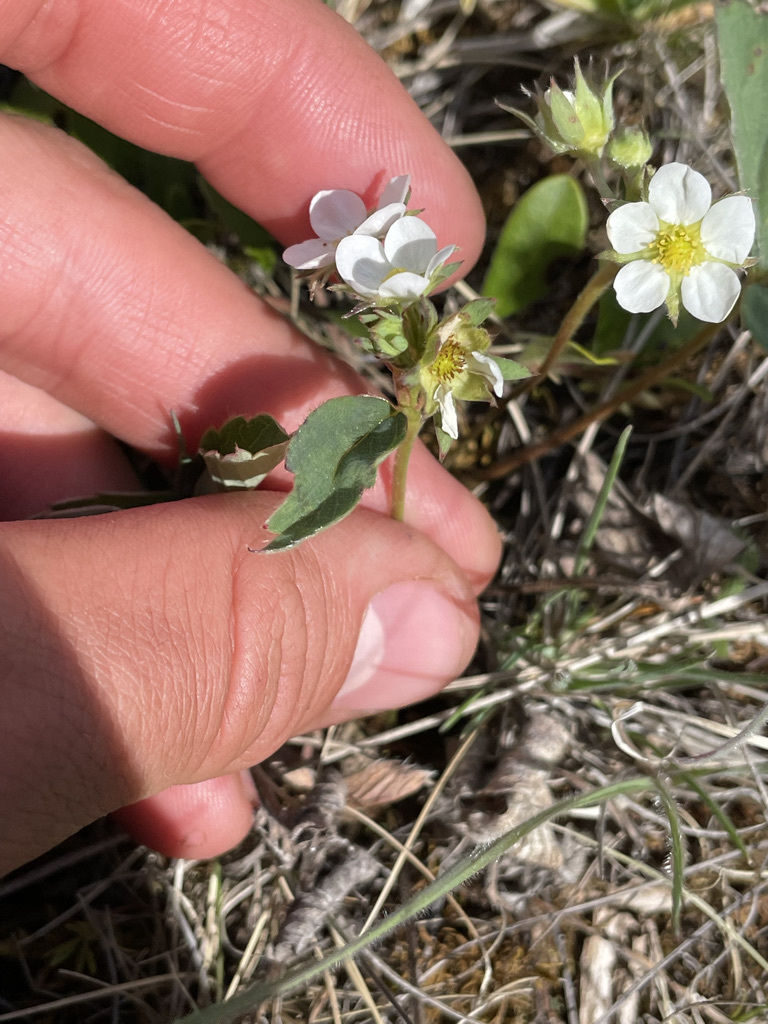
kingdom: Plantae
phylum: Tracheophyta
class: Magnoliopsida
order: Rosales
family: Rosaceae
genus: Fragaria
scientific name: Fragaria virginiana
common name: Thickleaved wild strawberry
